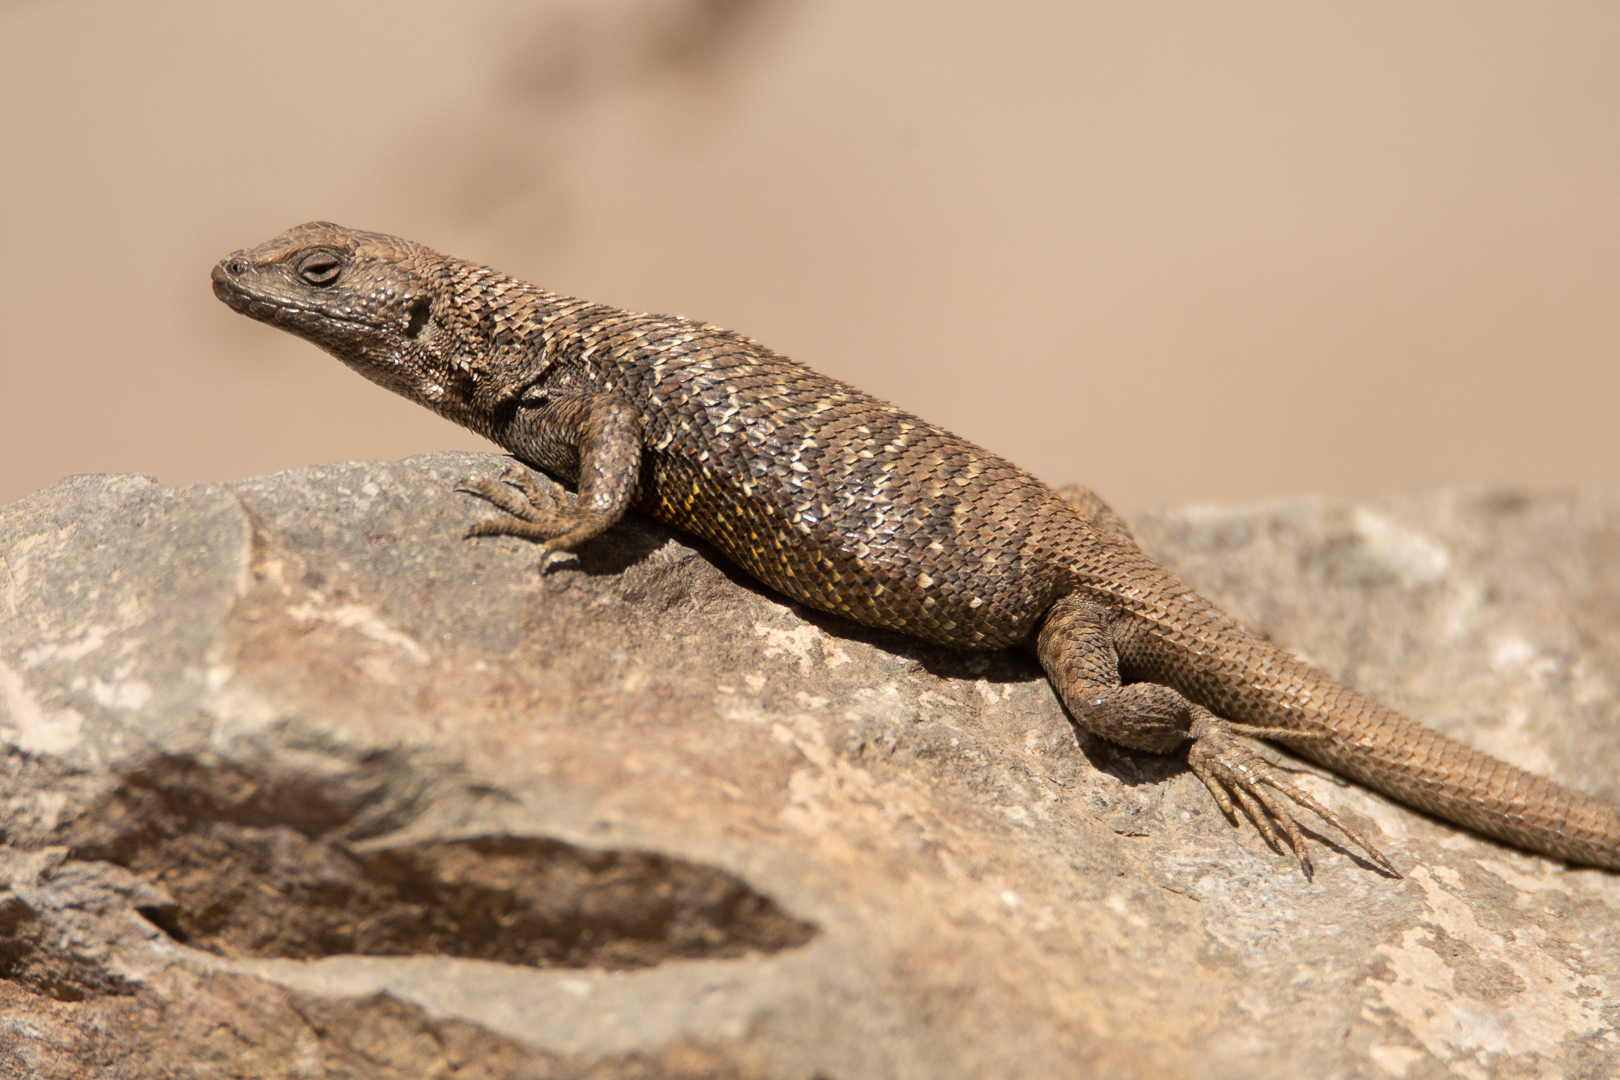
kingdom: Animalia
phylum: Chordata
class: Squamata
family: Liolaemidae
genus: Liolaemus
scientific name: Liolaemus bellii
